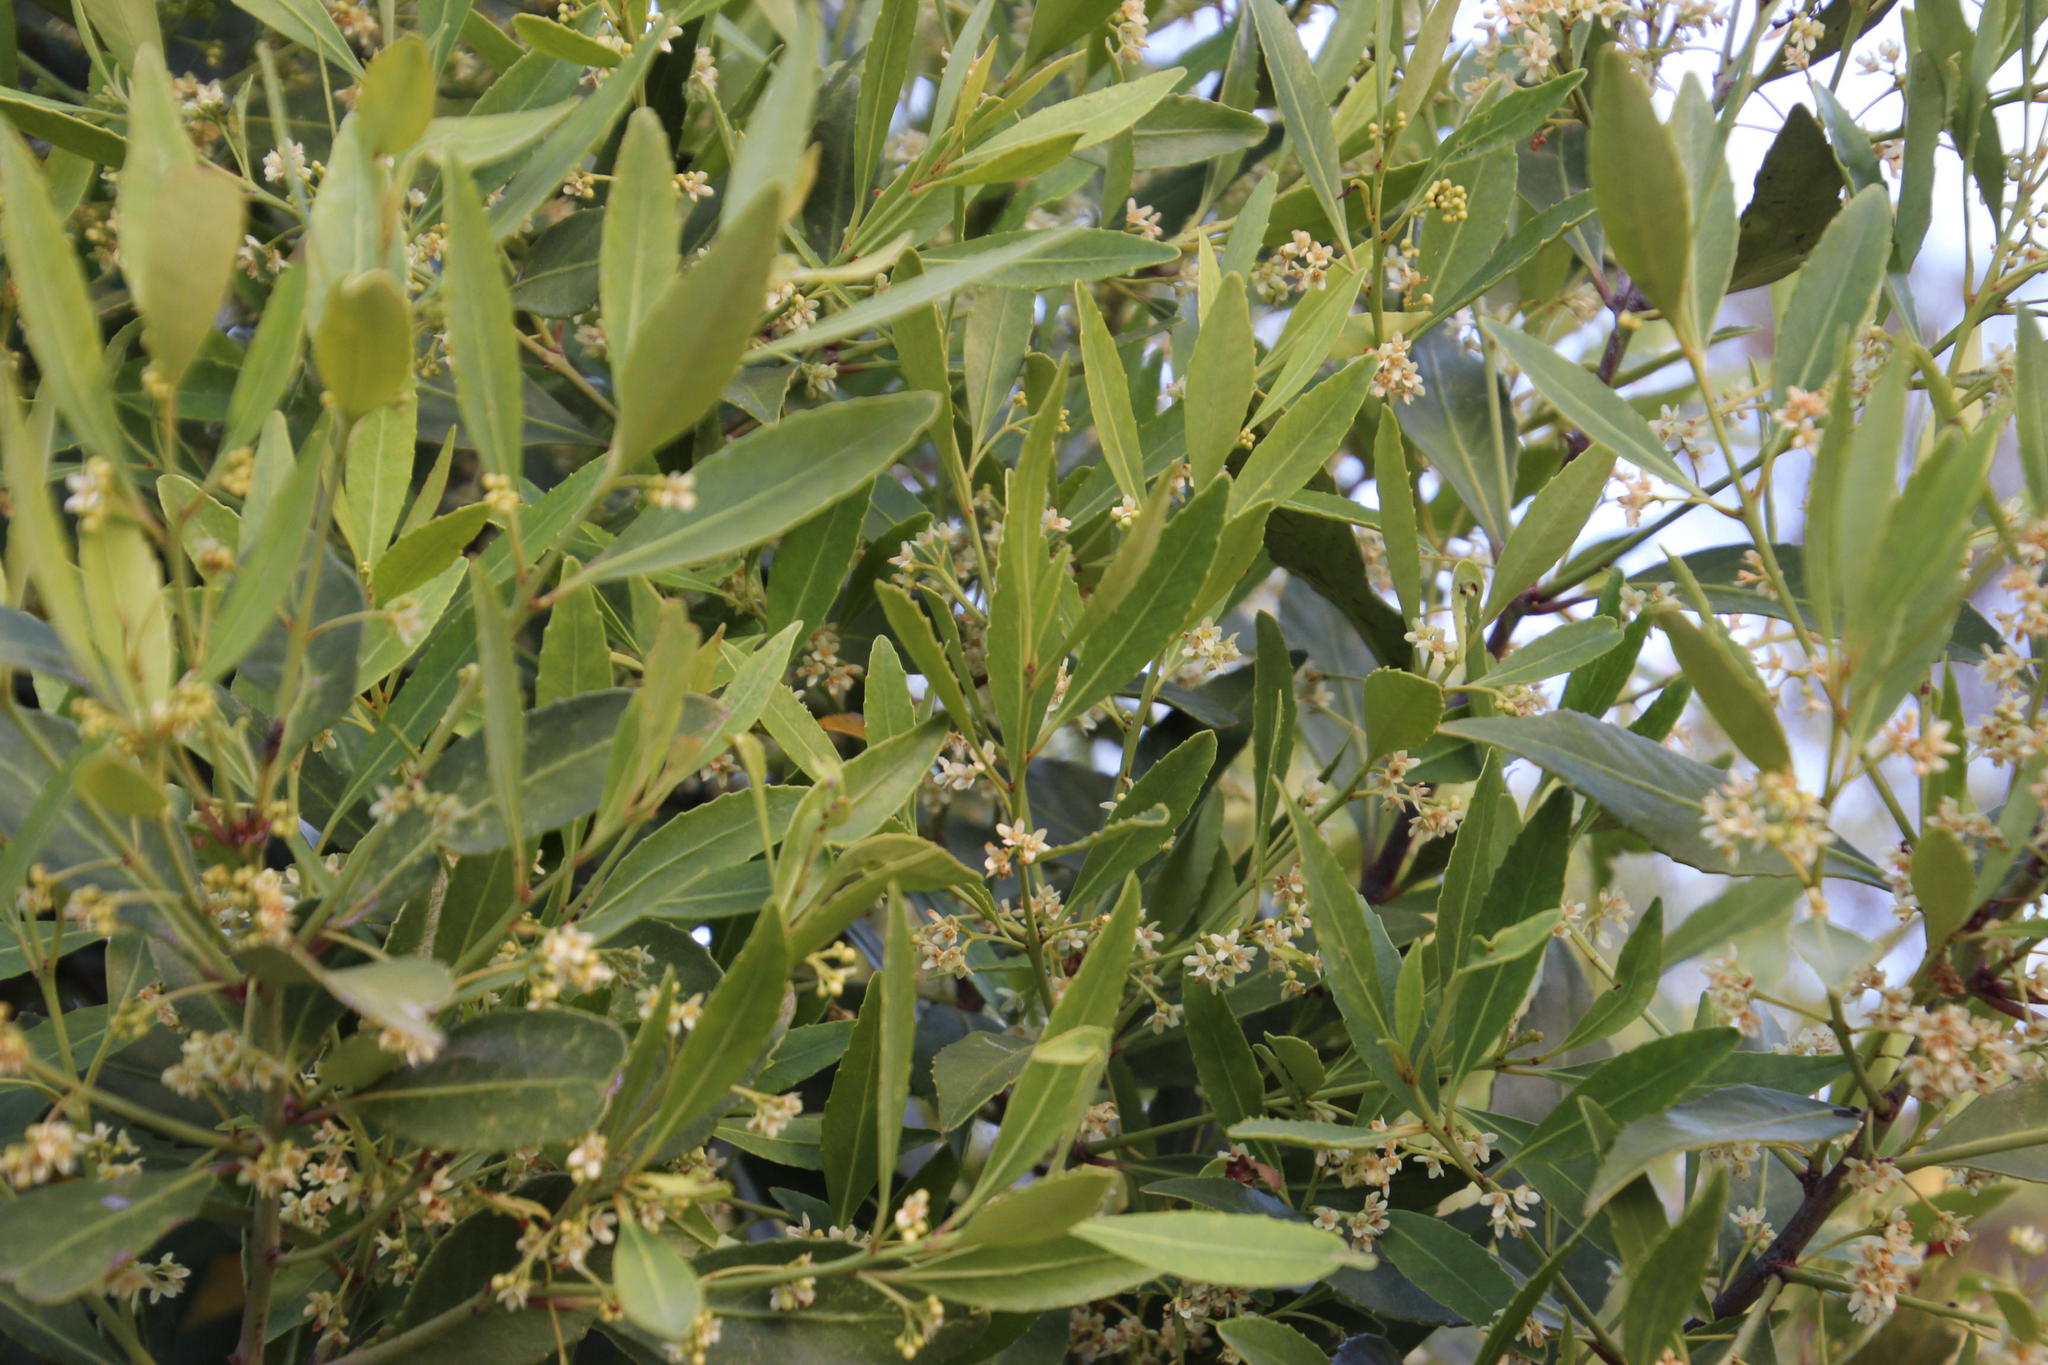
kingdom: Plantae
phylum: Tracheophyta
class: Magnoliopsida
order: Celastrales
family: Celastraceae
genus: Elaeodendron
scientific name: Elaeodendron schinoides
